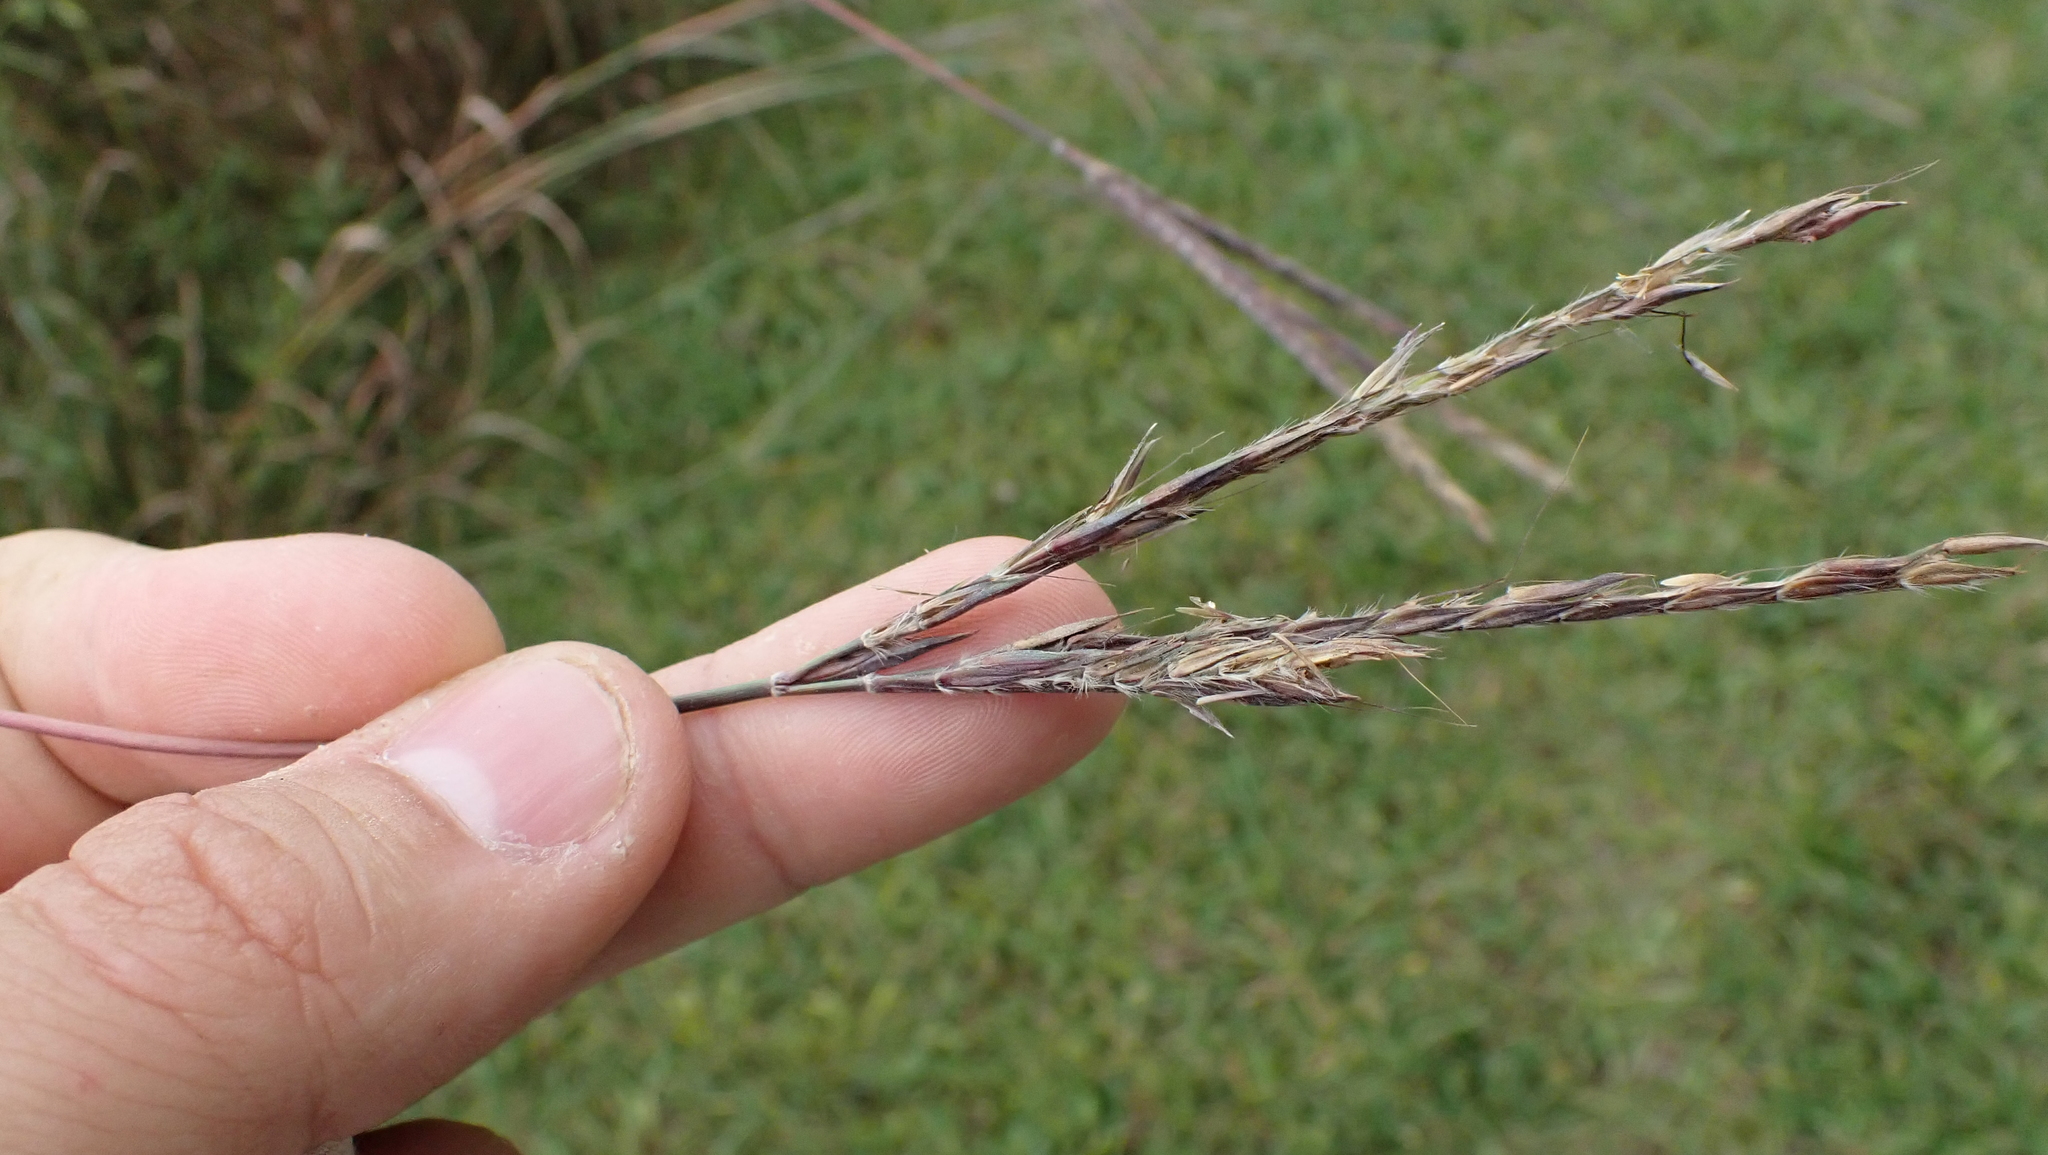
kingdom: Plantae
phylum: Tracheophyta
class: Liliopsida
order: Poales
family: Poaceae
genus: Andropogon
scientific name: Andropogon gerardi
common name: Big bluestem
